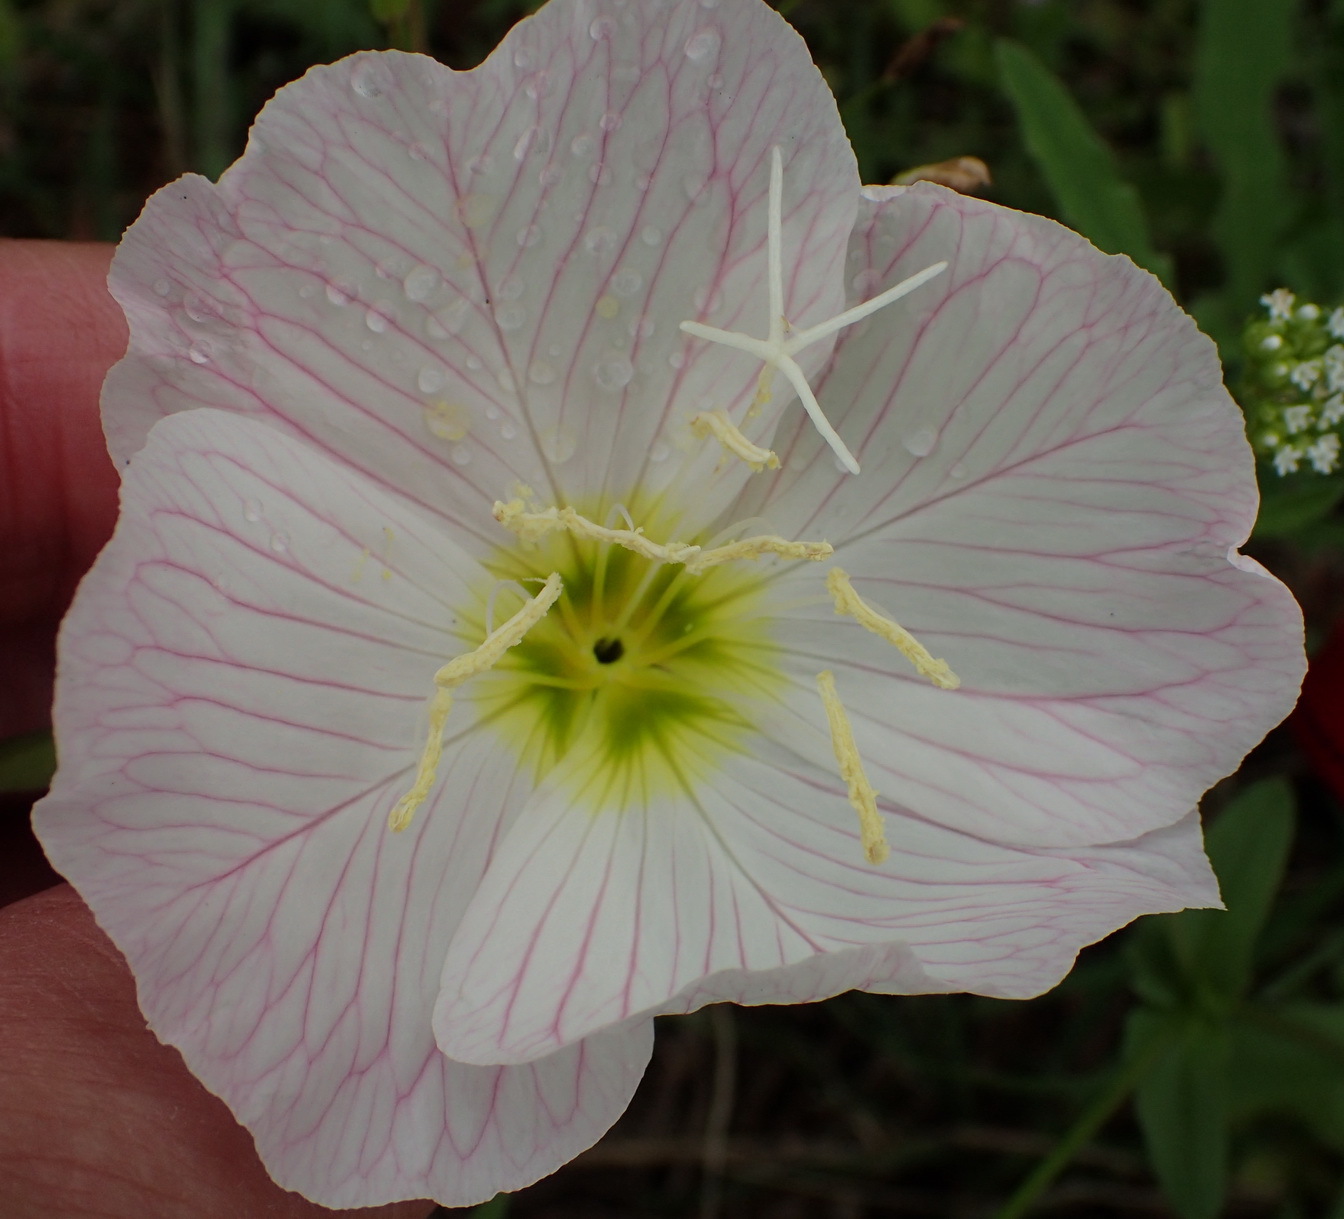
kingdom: Plantae
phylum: Tracheophyta
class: Magnoliopsida
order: Myrtales
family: Onagraceae
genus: Oenothera
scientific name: Oenothera speciosa
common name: White evening-primrose
